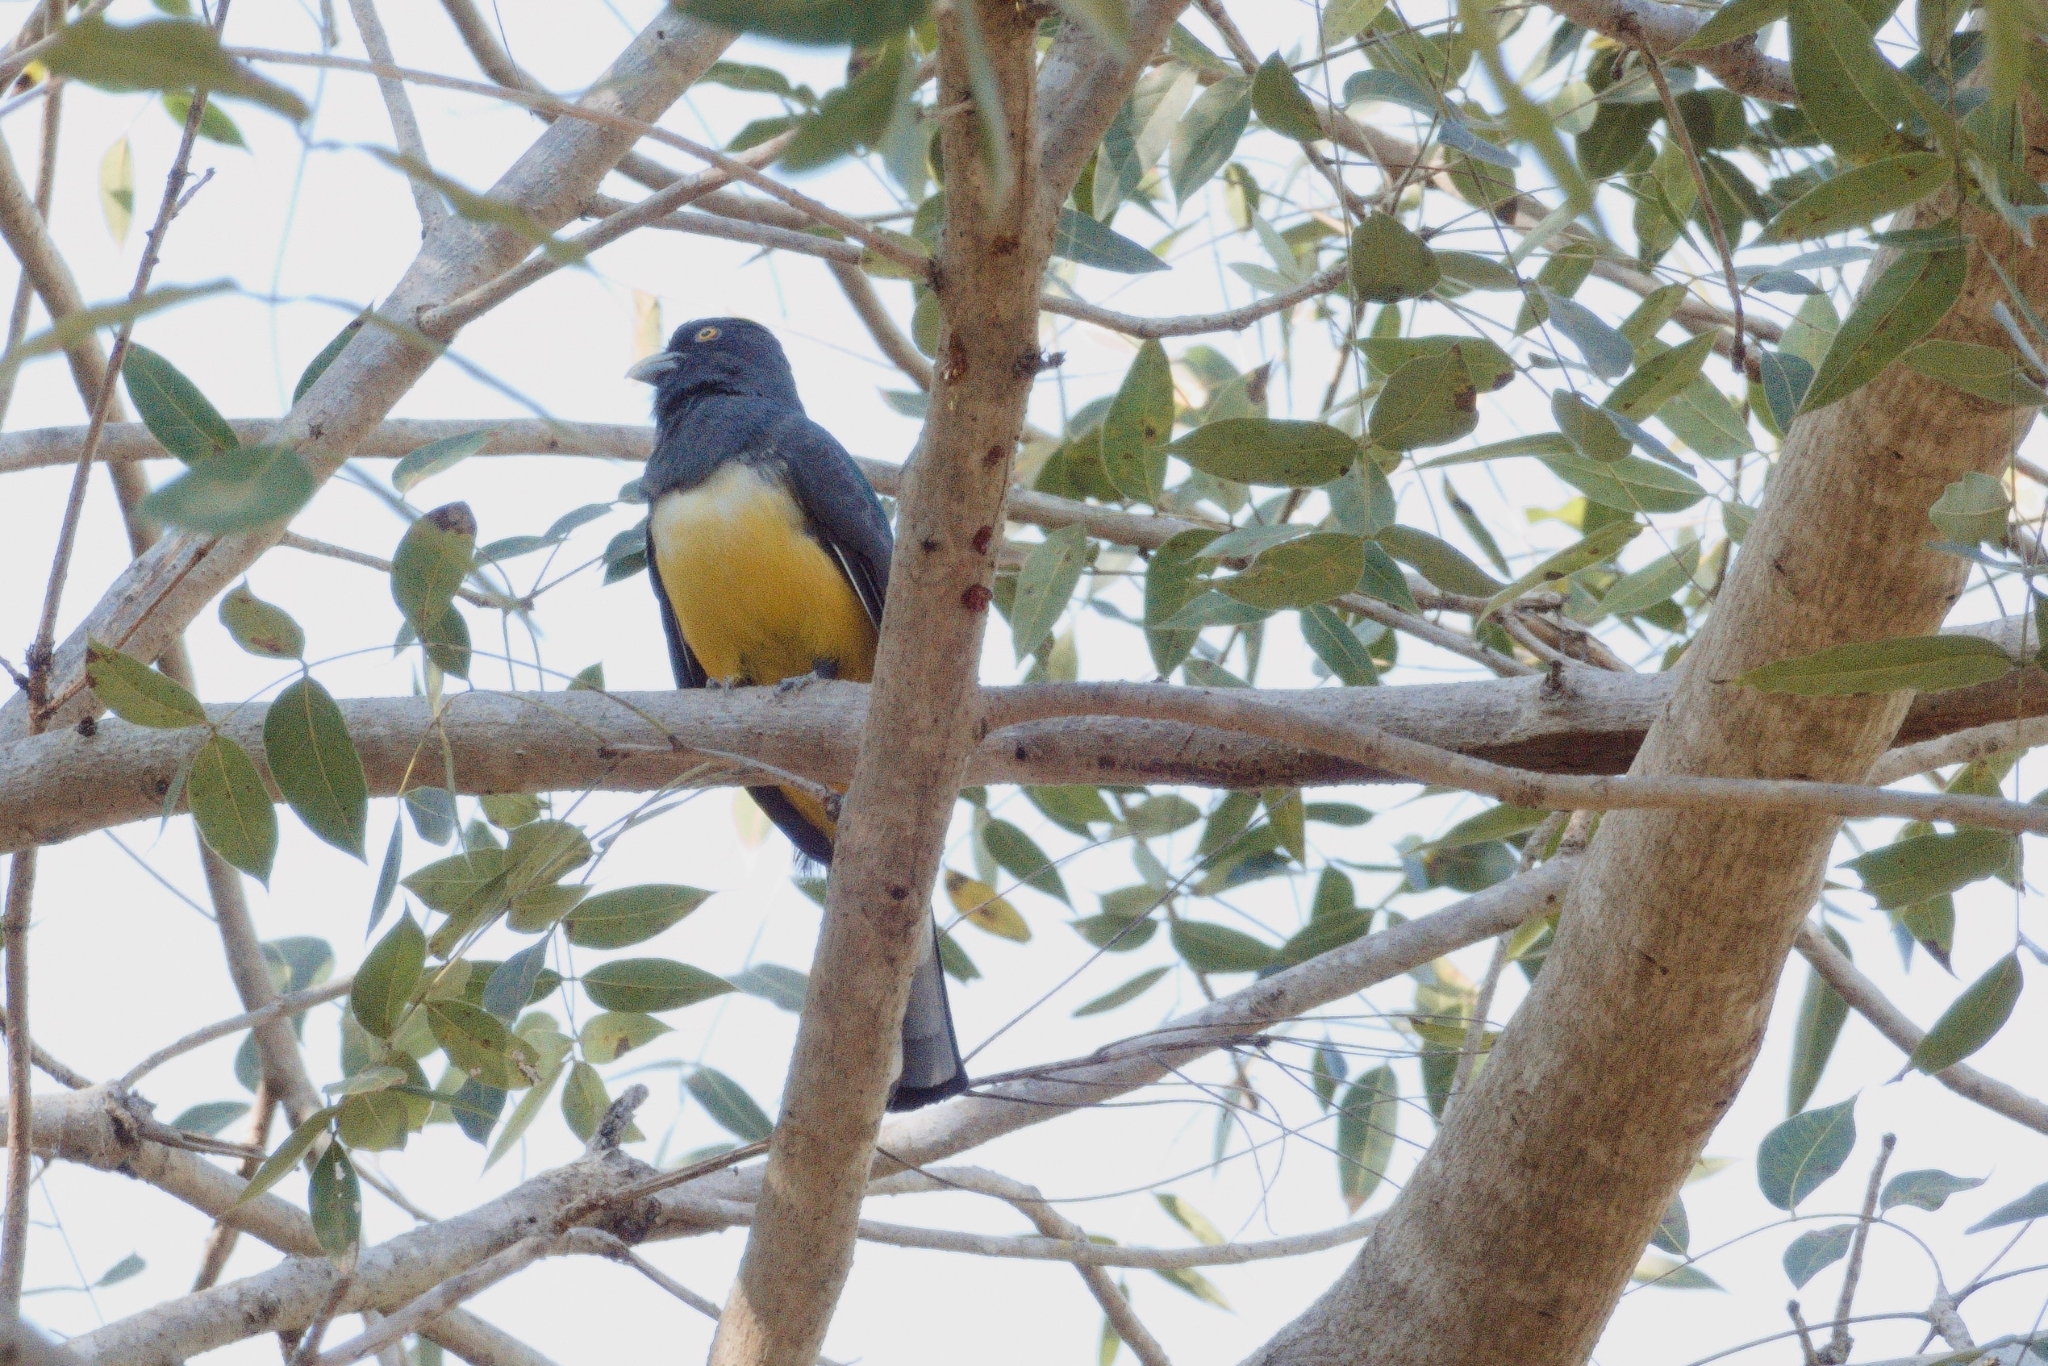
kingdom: Animalia
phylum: Chordata
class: Aves
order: Trogoniformes
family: Trogonidae
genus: Trogon
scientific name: Trogon citreolus
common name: Citreoline trogon
